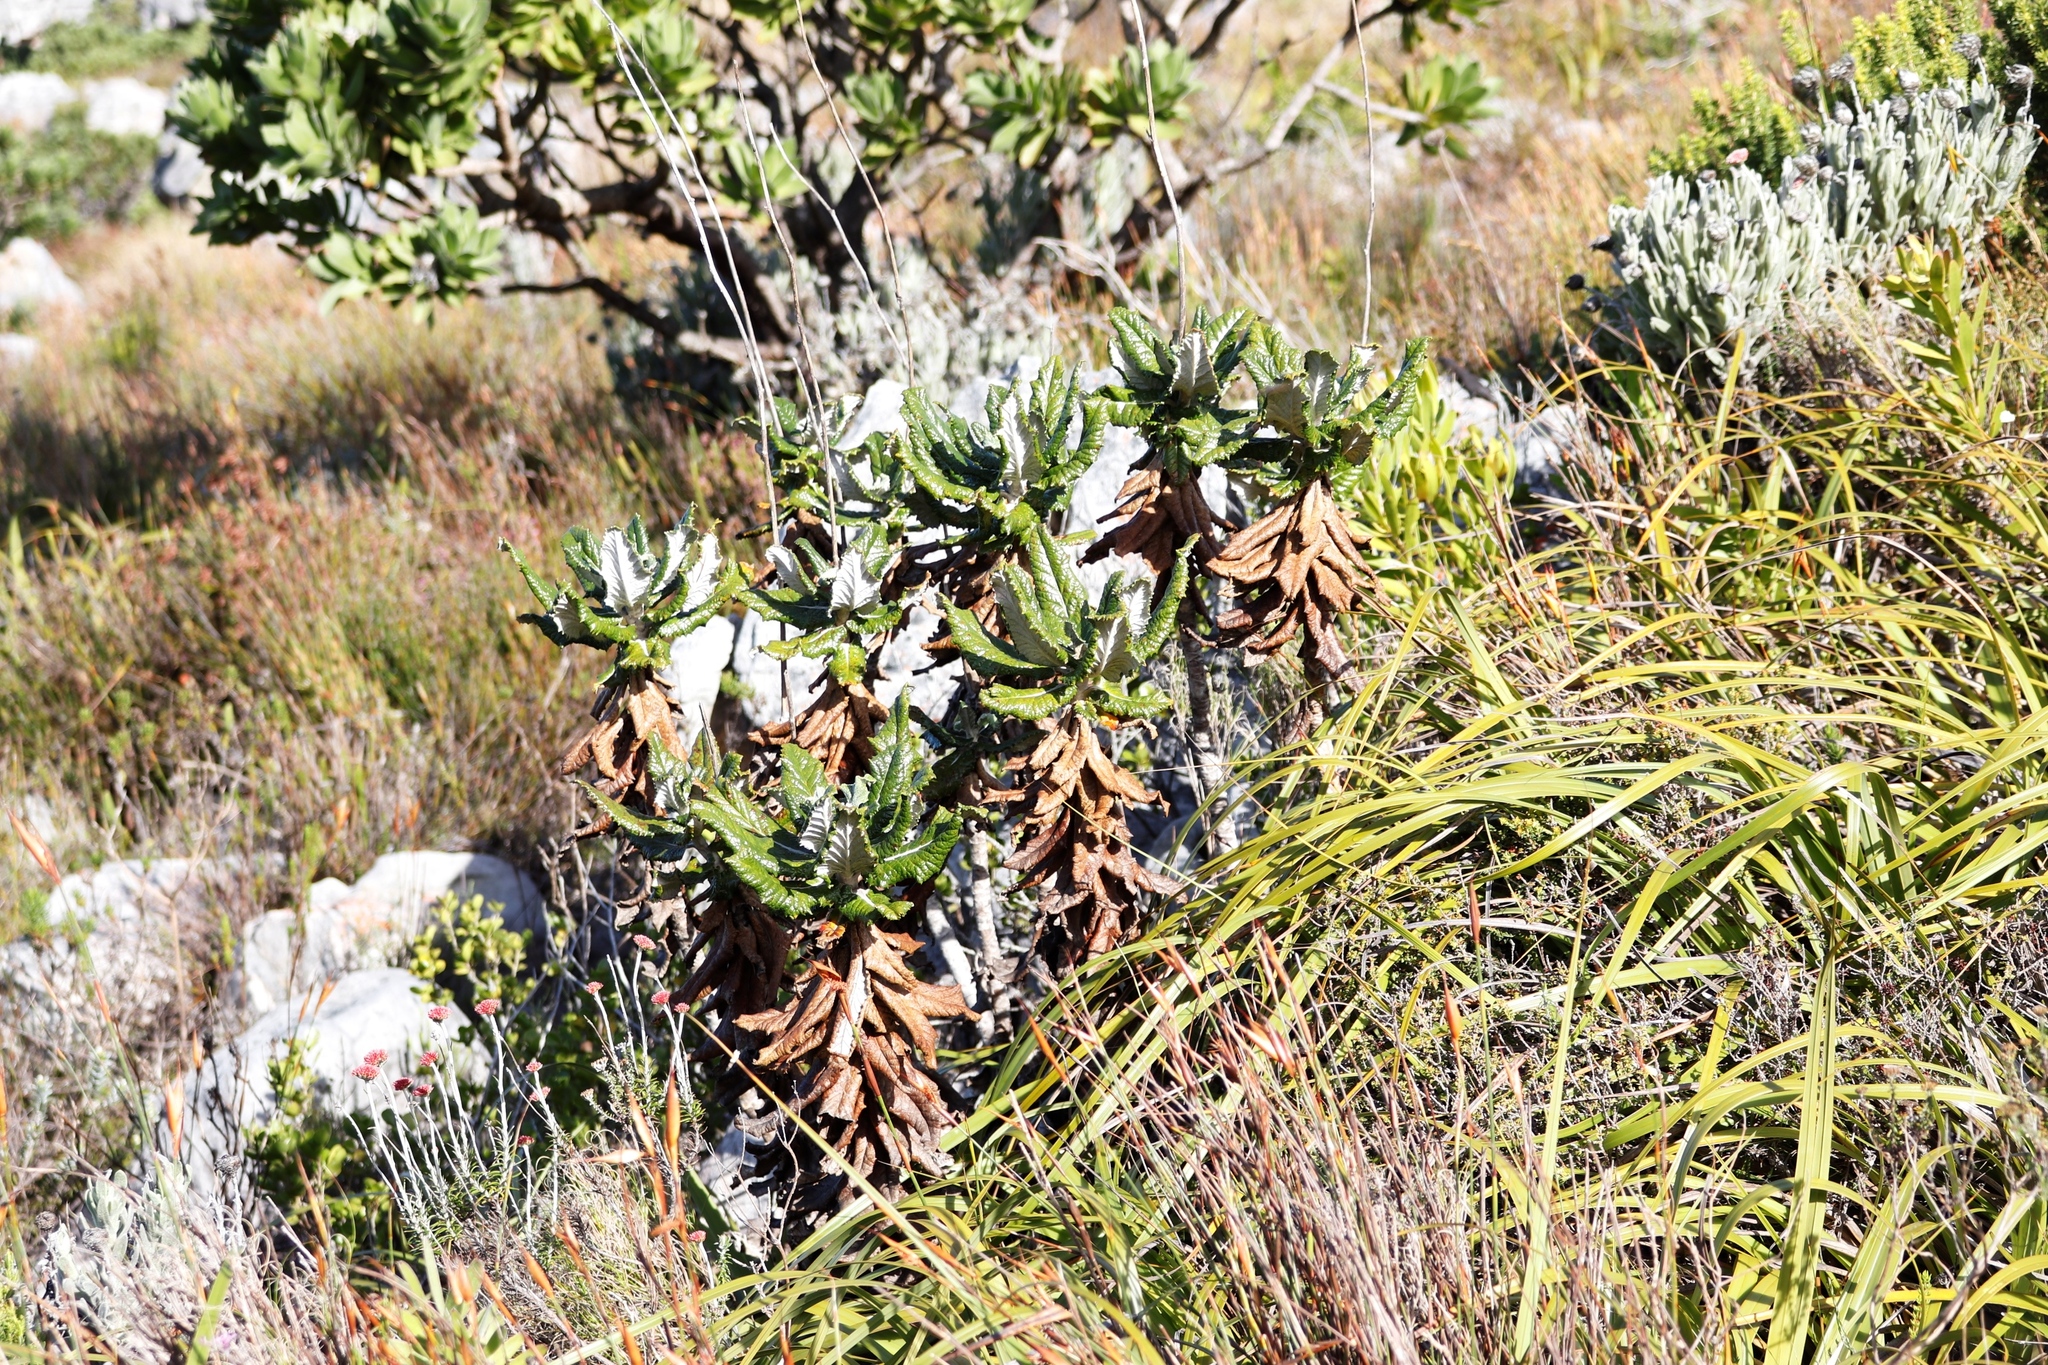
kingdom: Plantae
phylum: Tracheophyta
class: Magnoliopsida
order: Apiales
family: Apiaceae
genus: Hermas
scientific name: Hermas villosa
